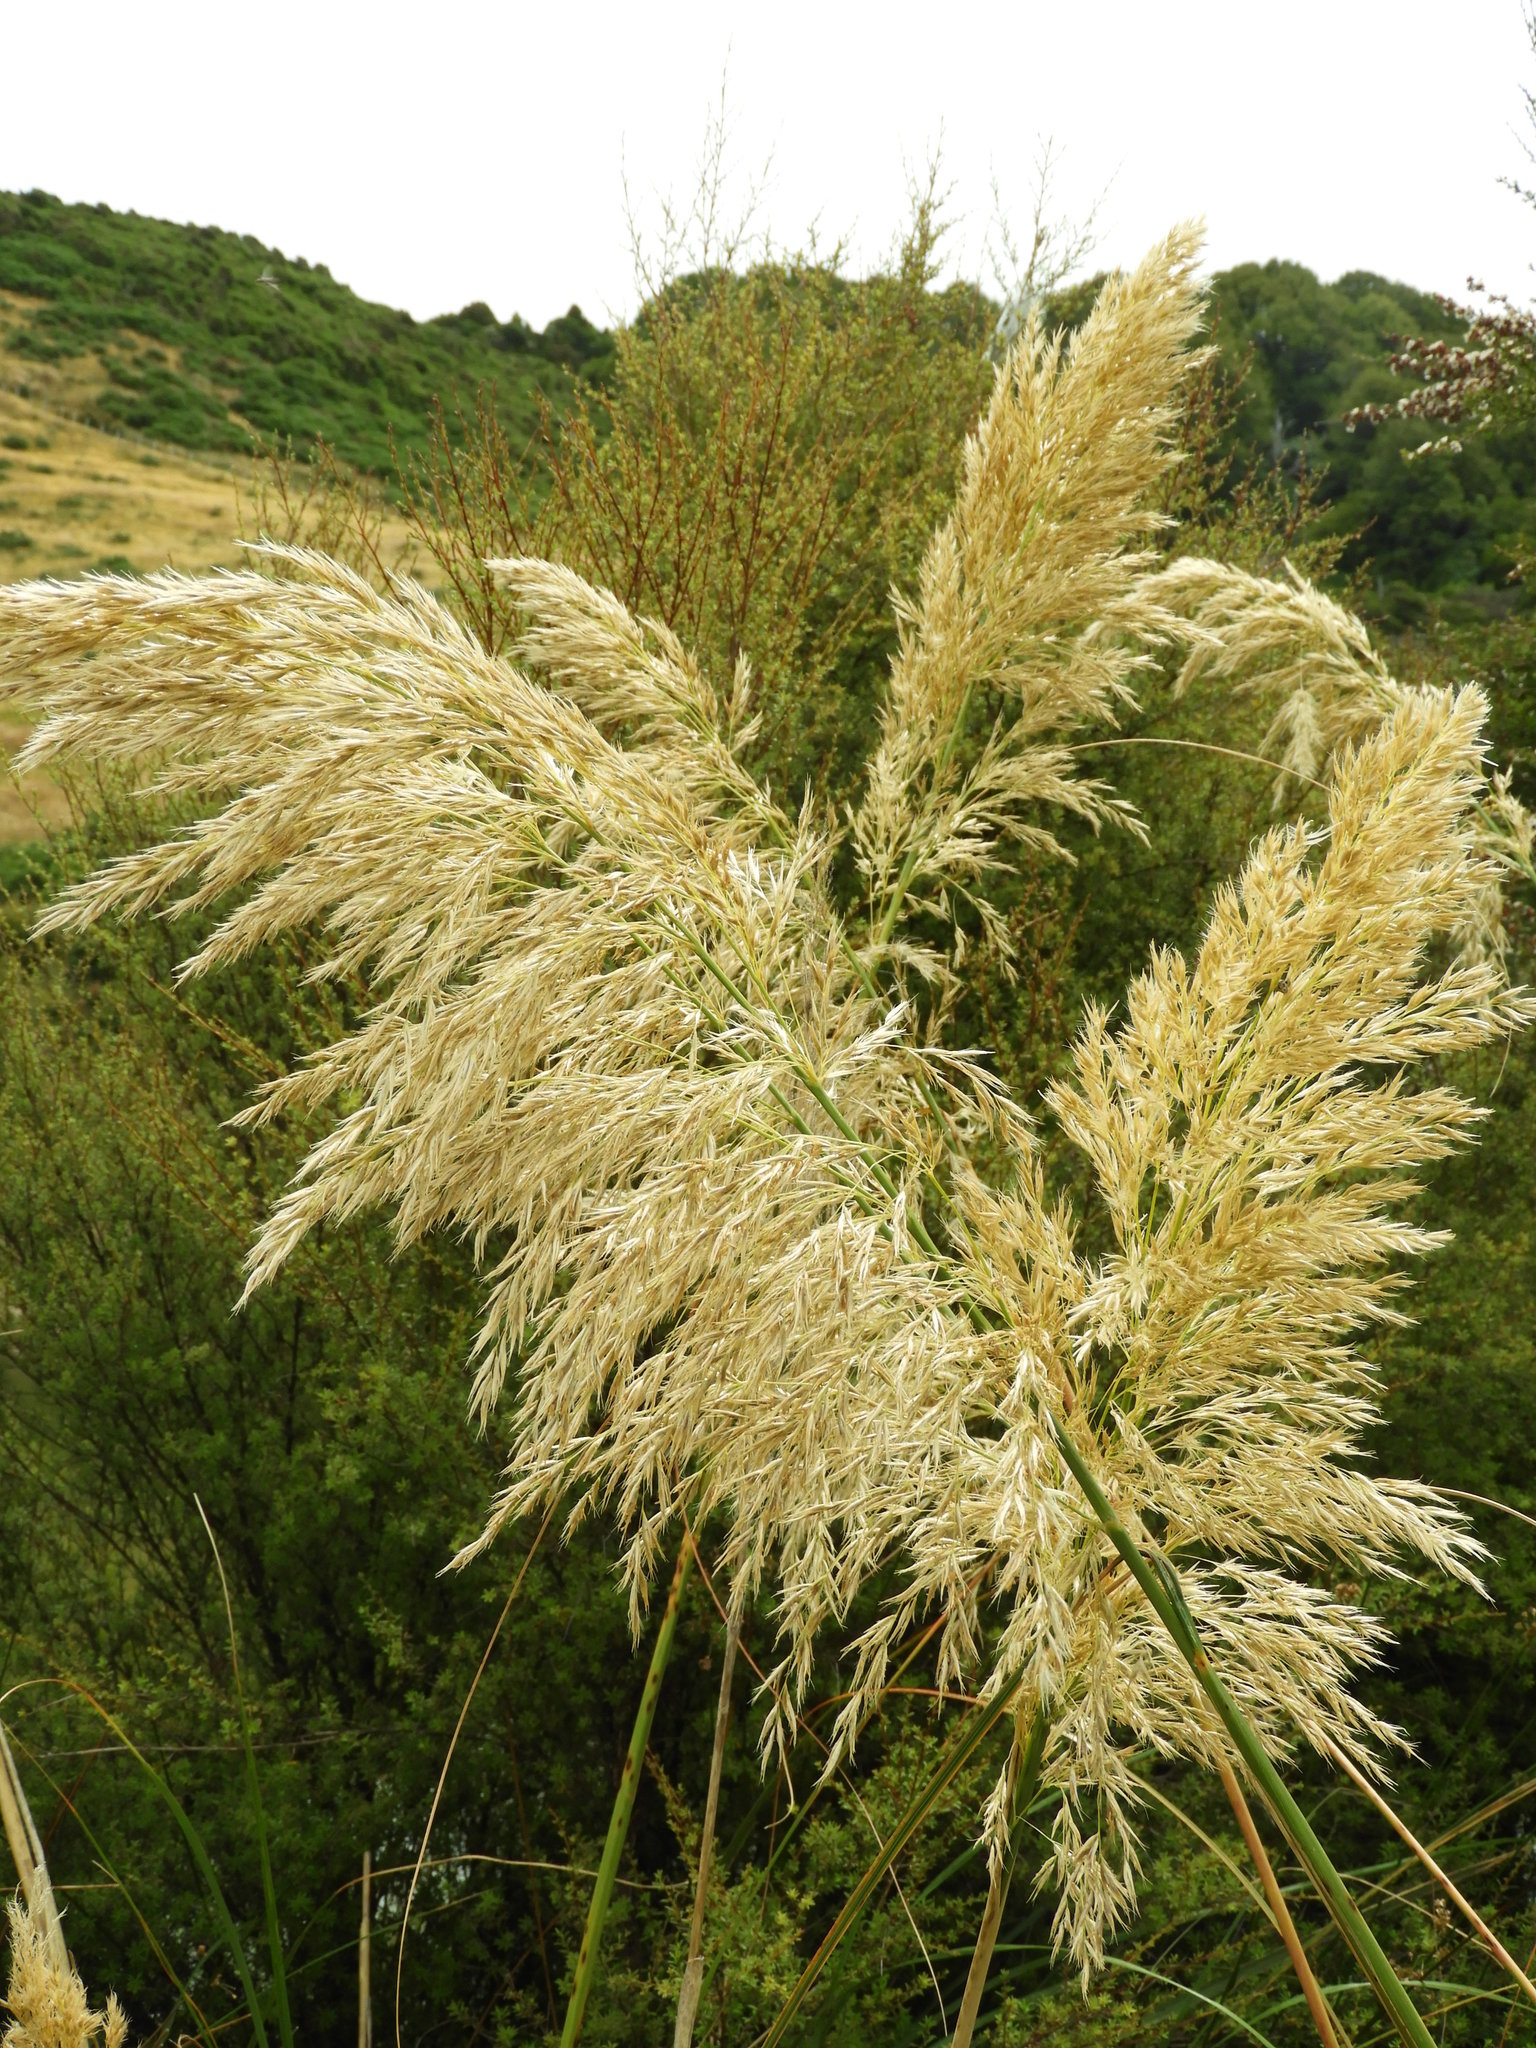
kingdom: Plantae
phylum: Tracheophyta
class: Liliopsida
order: Poales
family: Poaceae
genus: Austroderia
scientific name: Austroderia richardii
